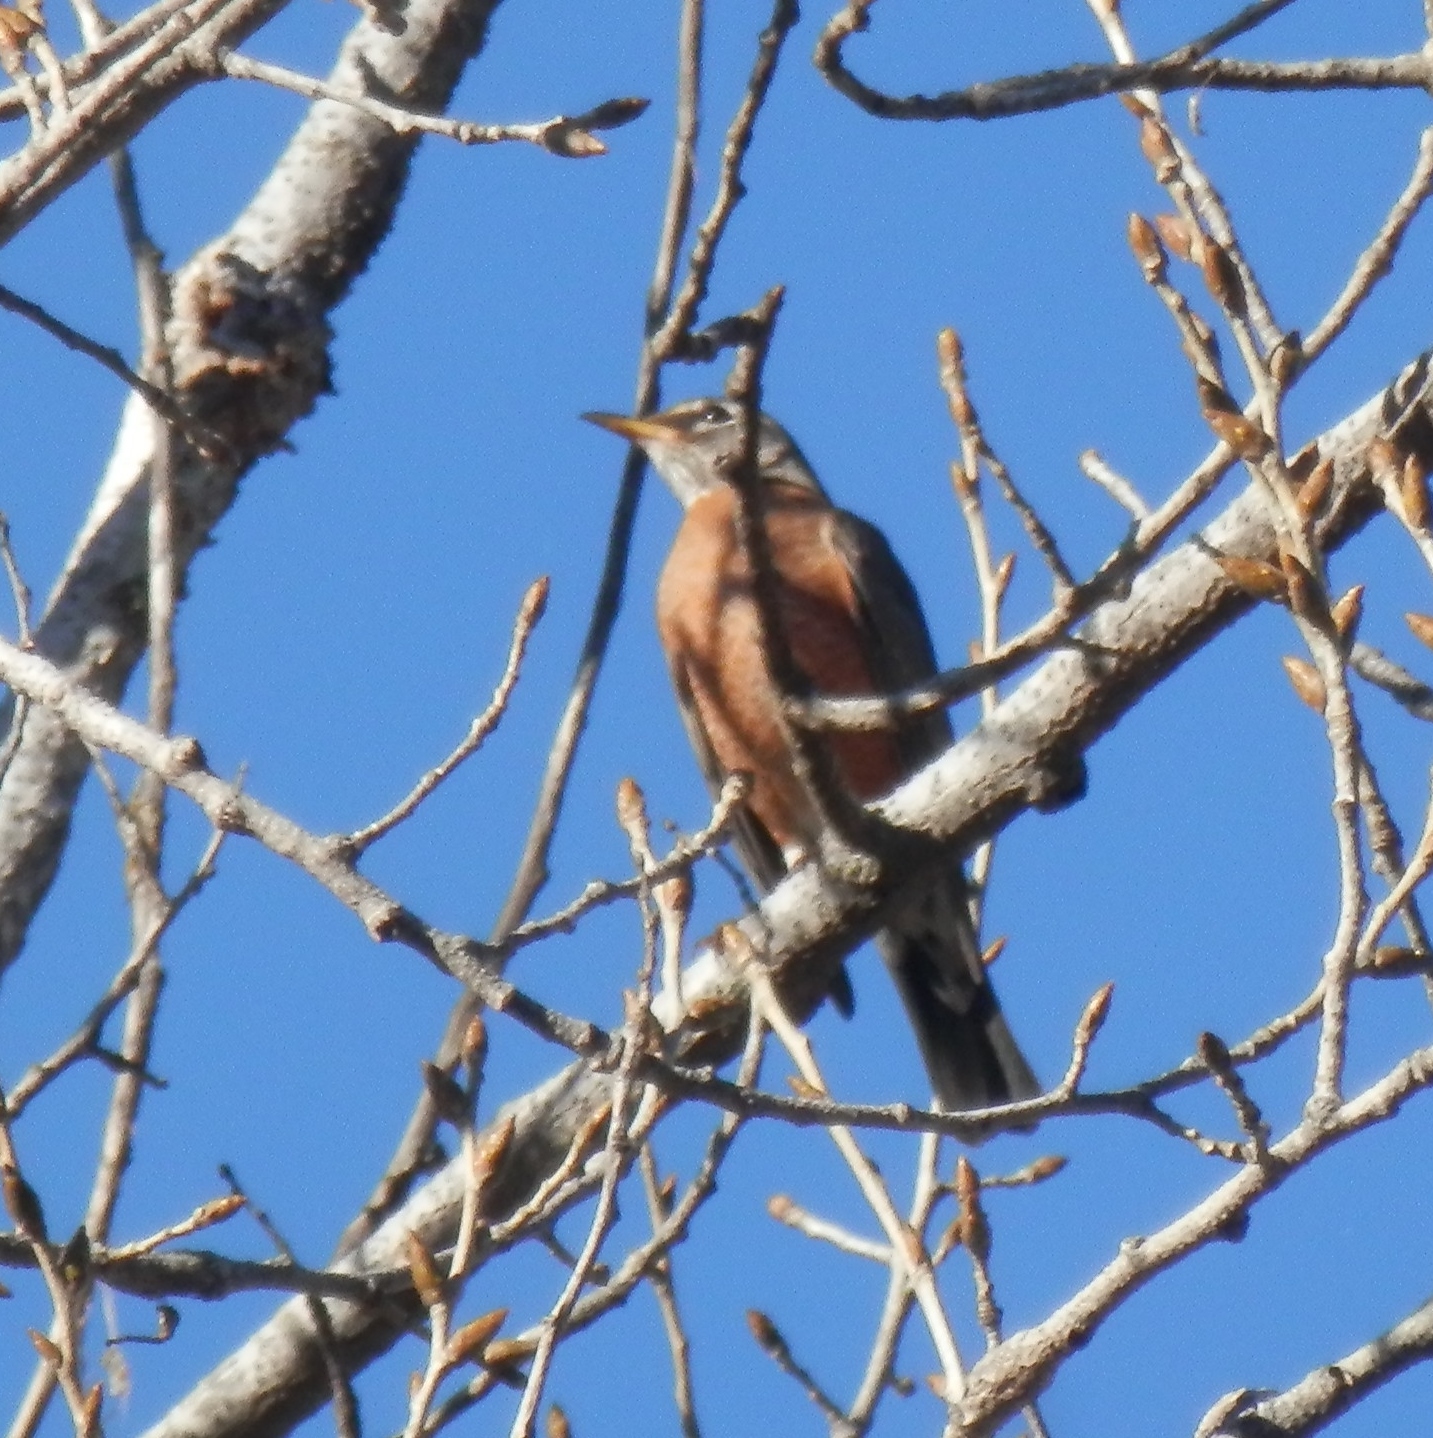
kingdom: Animalia
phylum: Chordata
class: Aves
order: Passeriformes
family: Turdidae
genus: Turdus
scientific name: Turdus migratorius
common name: American robin
